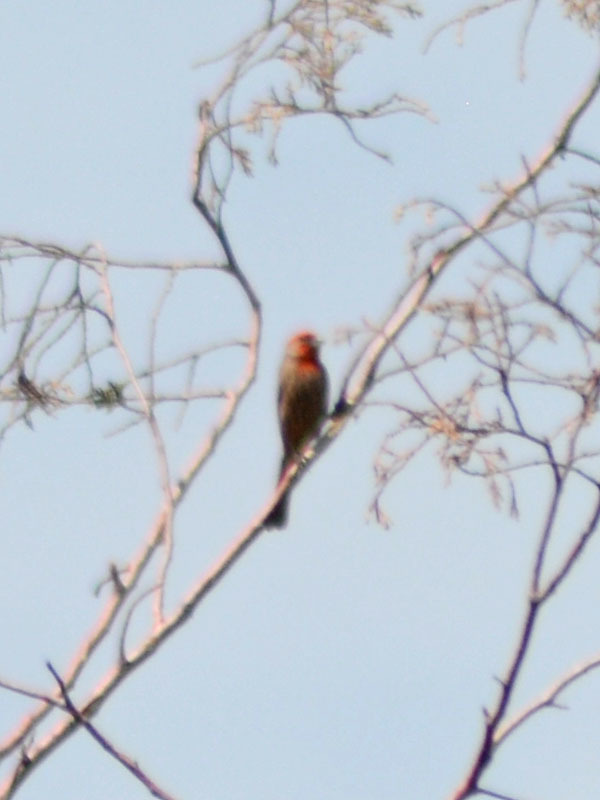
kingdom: Animalia
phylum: Chordata
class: Aves
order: Passeriformes
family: Fringillidae
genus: Haemorhous
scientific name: Haemorhous mexicanus
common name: House finch
